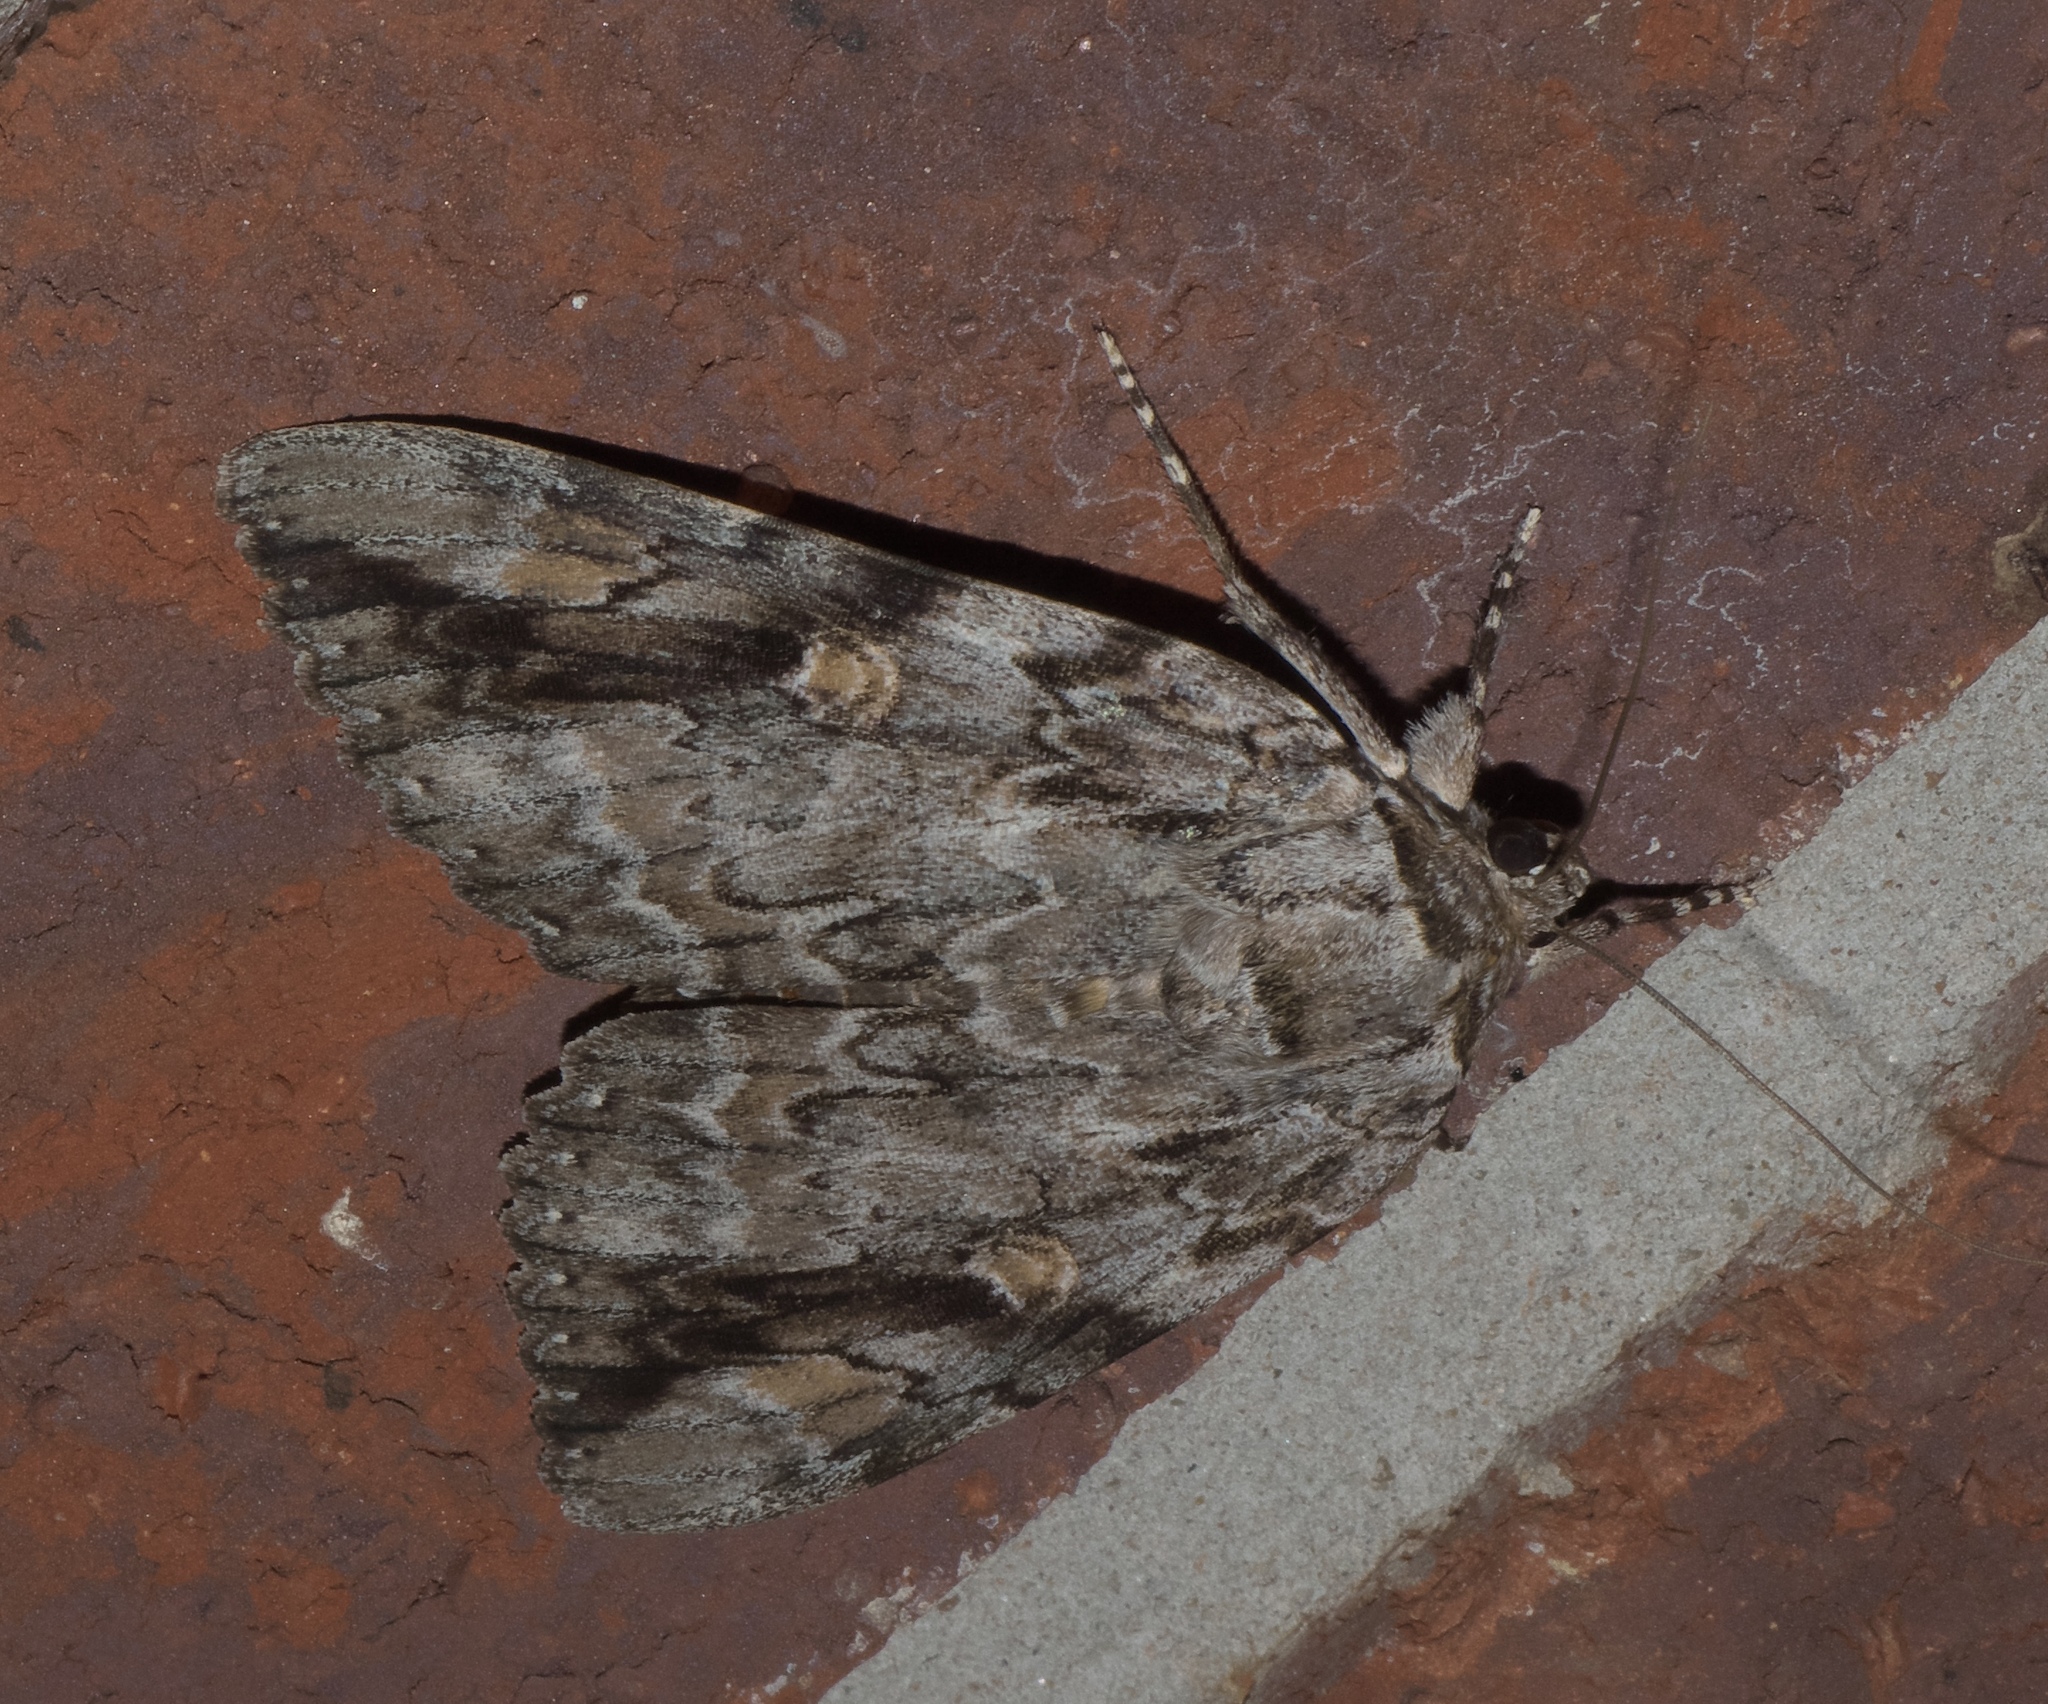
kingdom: Animalia
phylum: Arthropoda
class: Insecta
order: Lepidoptera
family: Erebidae
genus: Catocala
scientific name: Catocala maestosa
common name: Sad underwing
